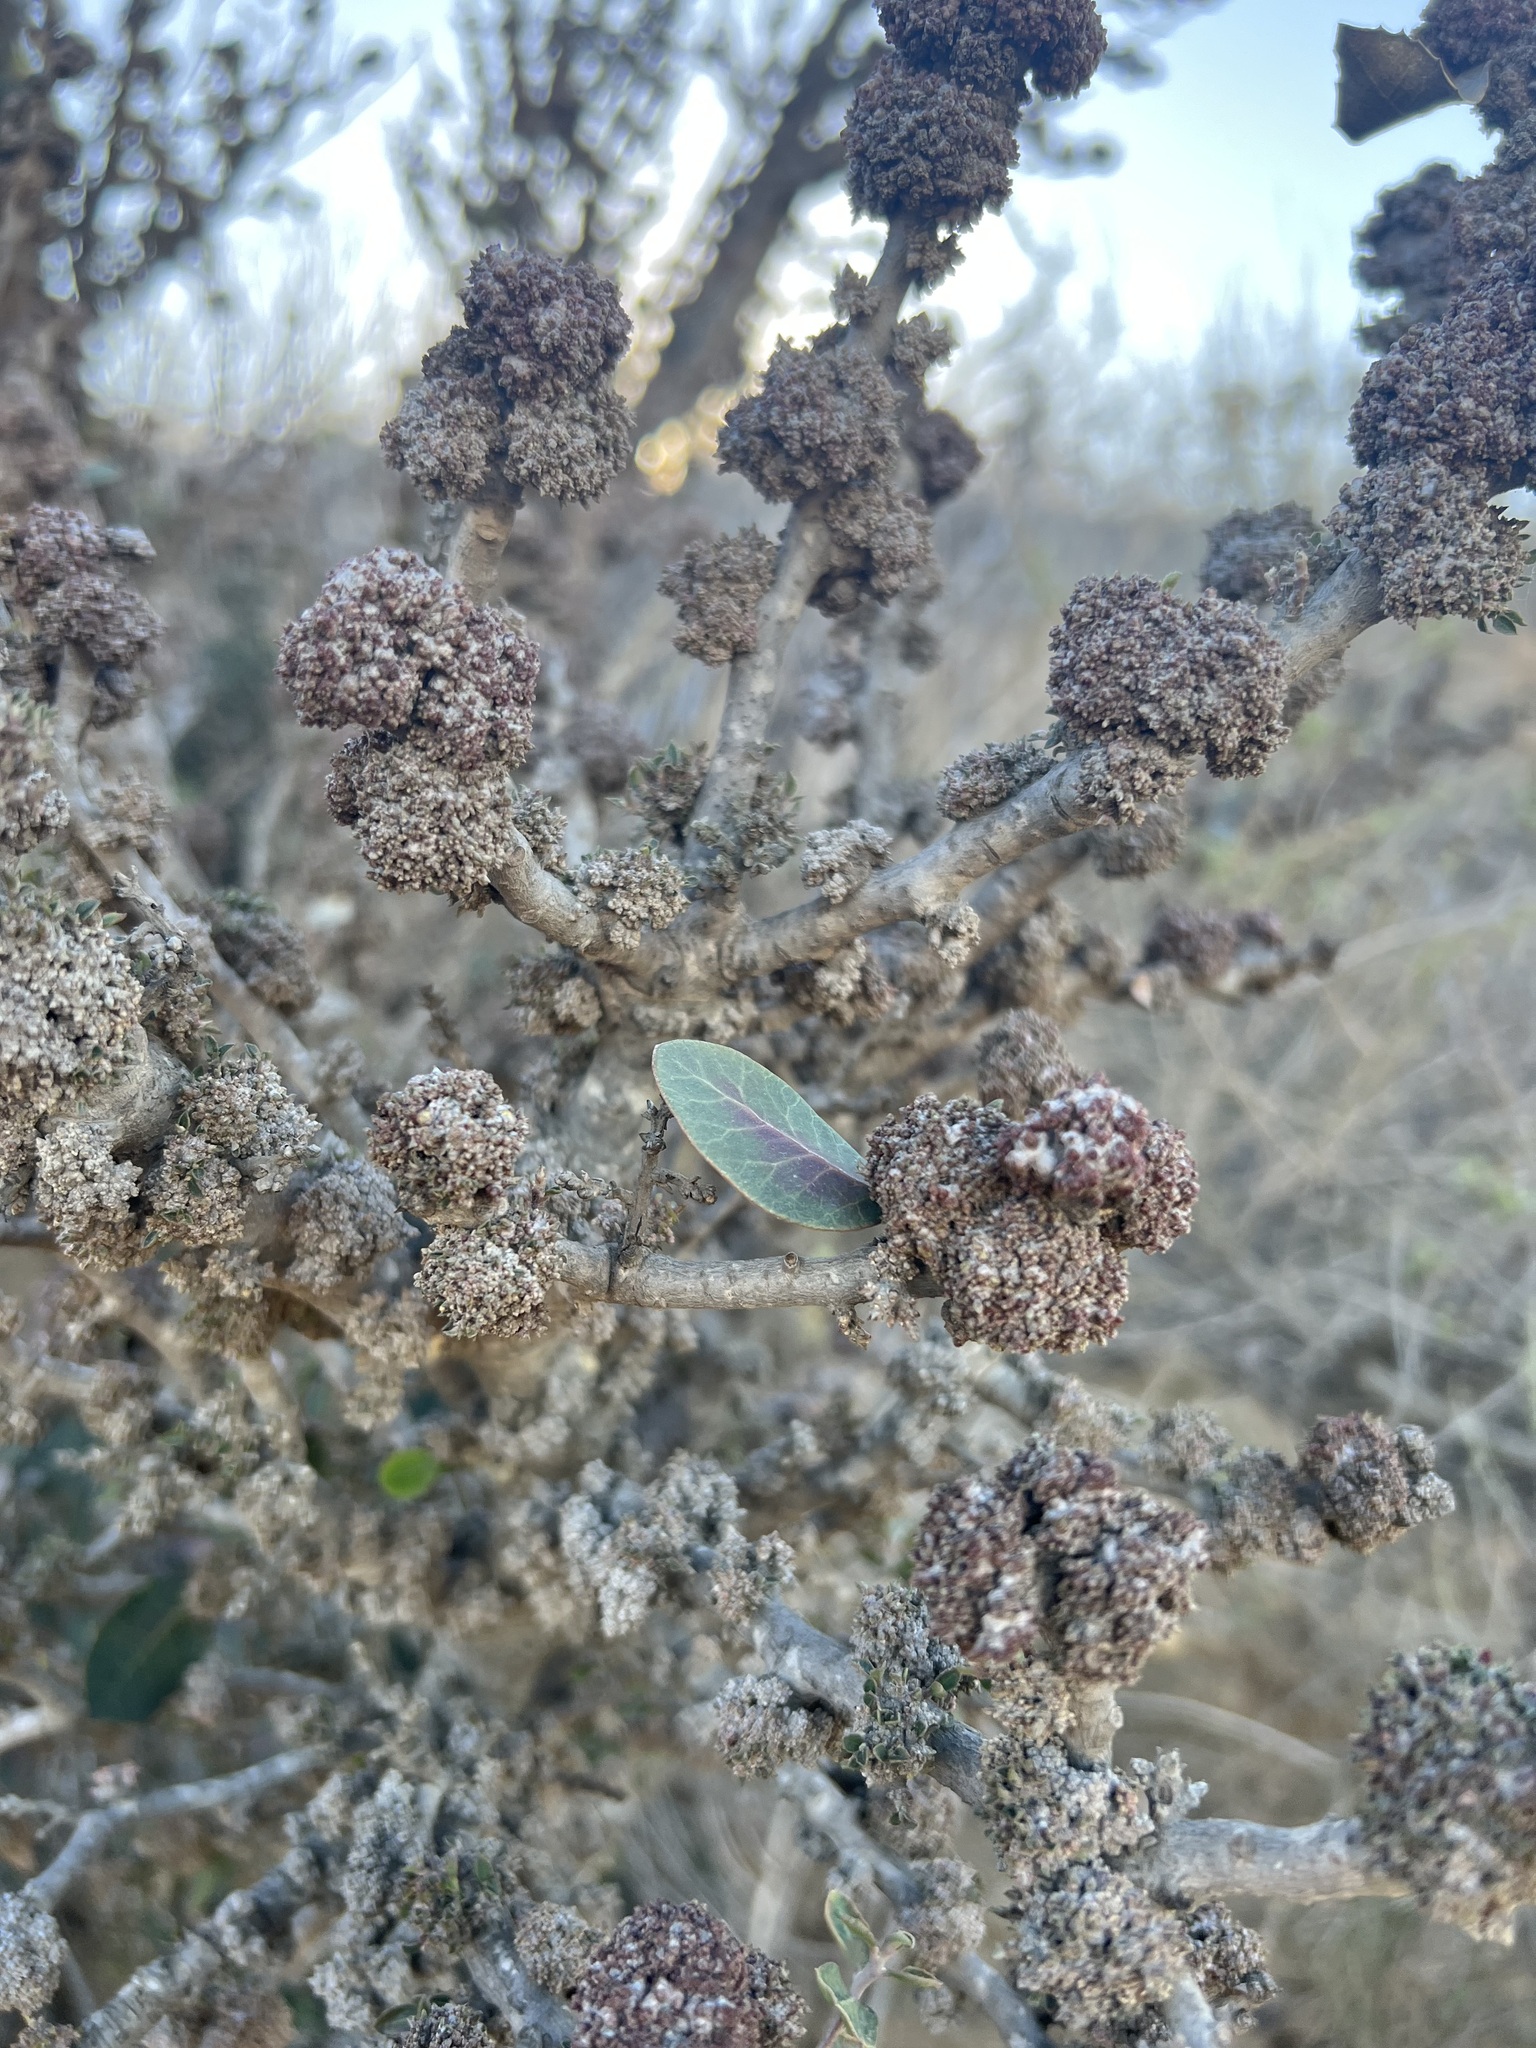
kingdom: Plantae
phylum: Tracheophyta
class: Magnoliopsida
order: Sapindales
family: Anacardiaceae
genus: Rhus
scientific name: Rhus integrifolia
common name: Lemonade sumac
